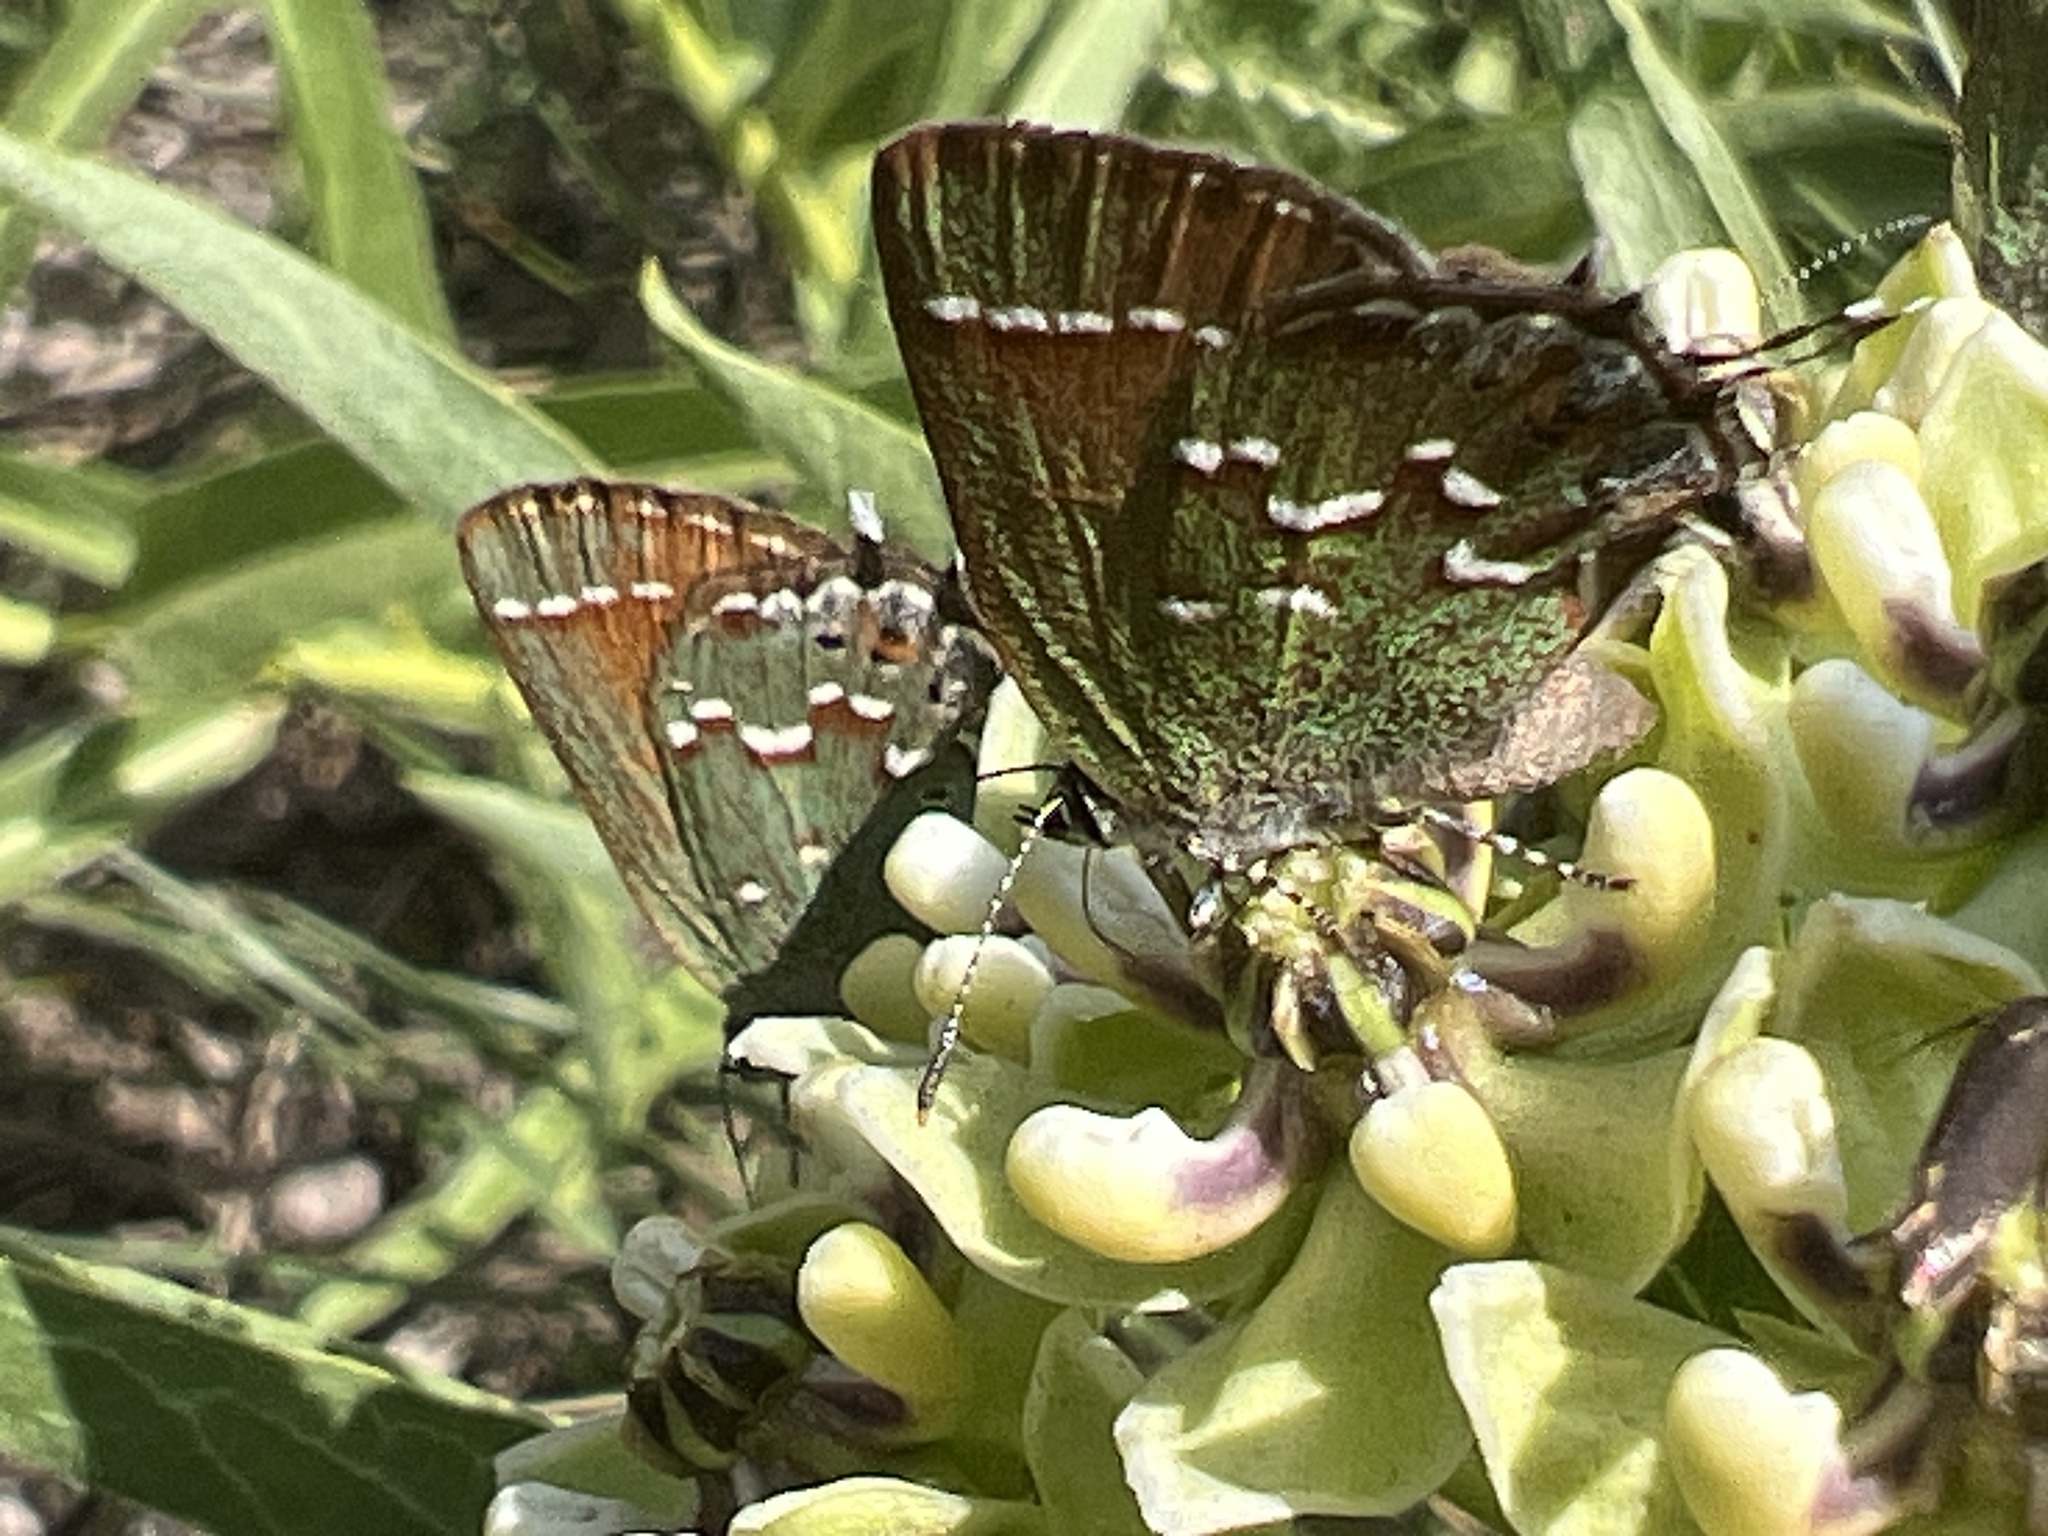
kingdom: Animalia
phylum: Arthropoda
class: Insecta
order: Lepidoptera
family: Lycaenidae
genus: Mitoura
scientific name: Mitoura gryneus
